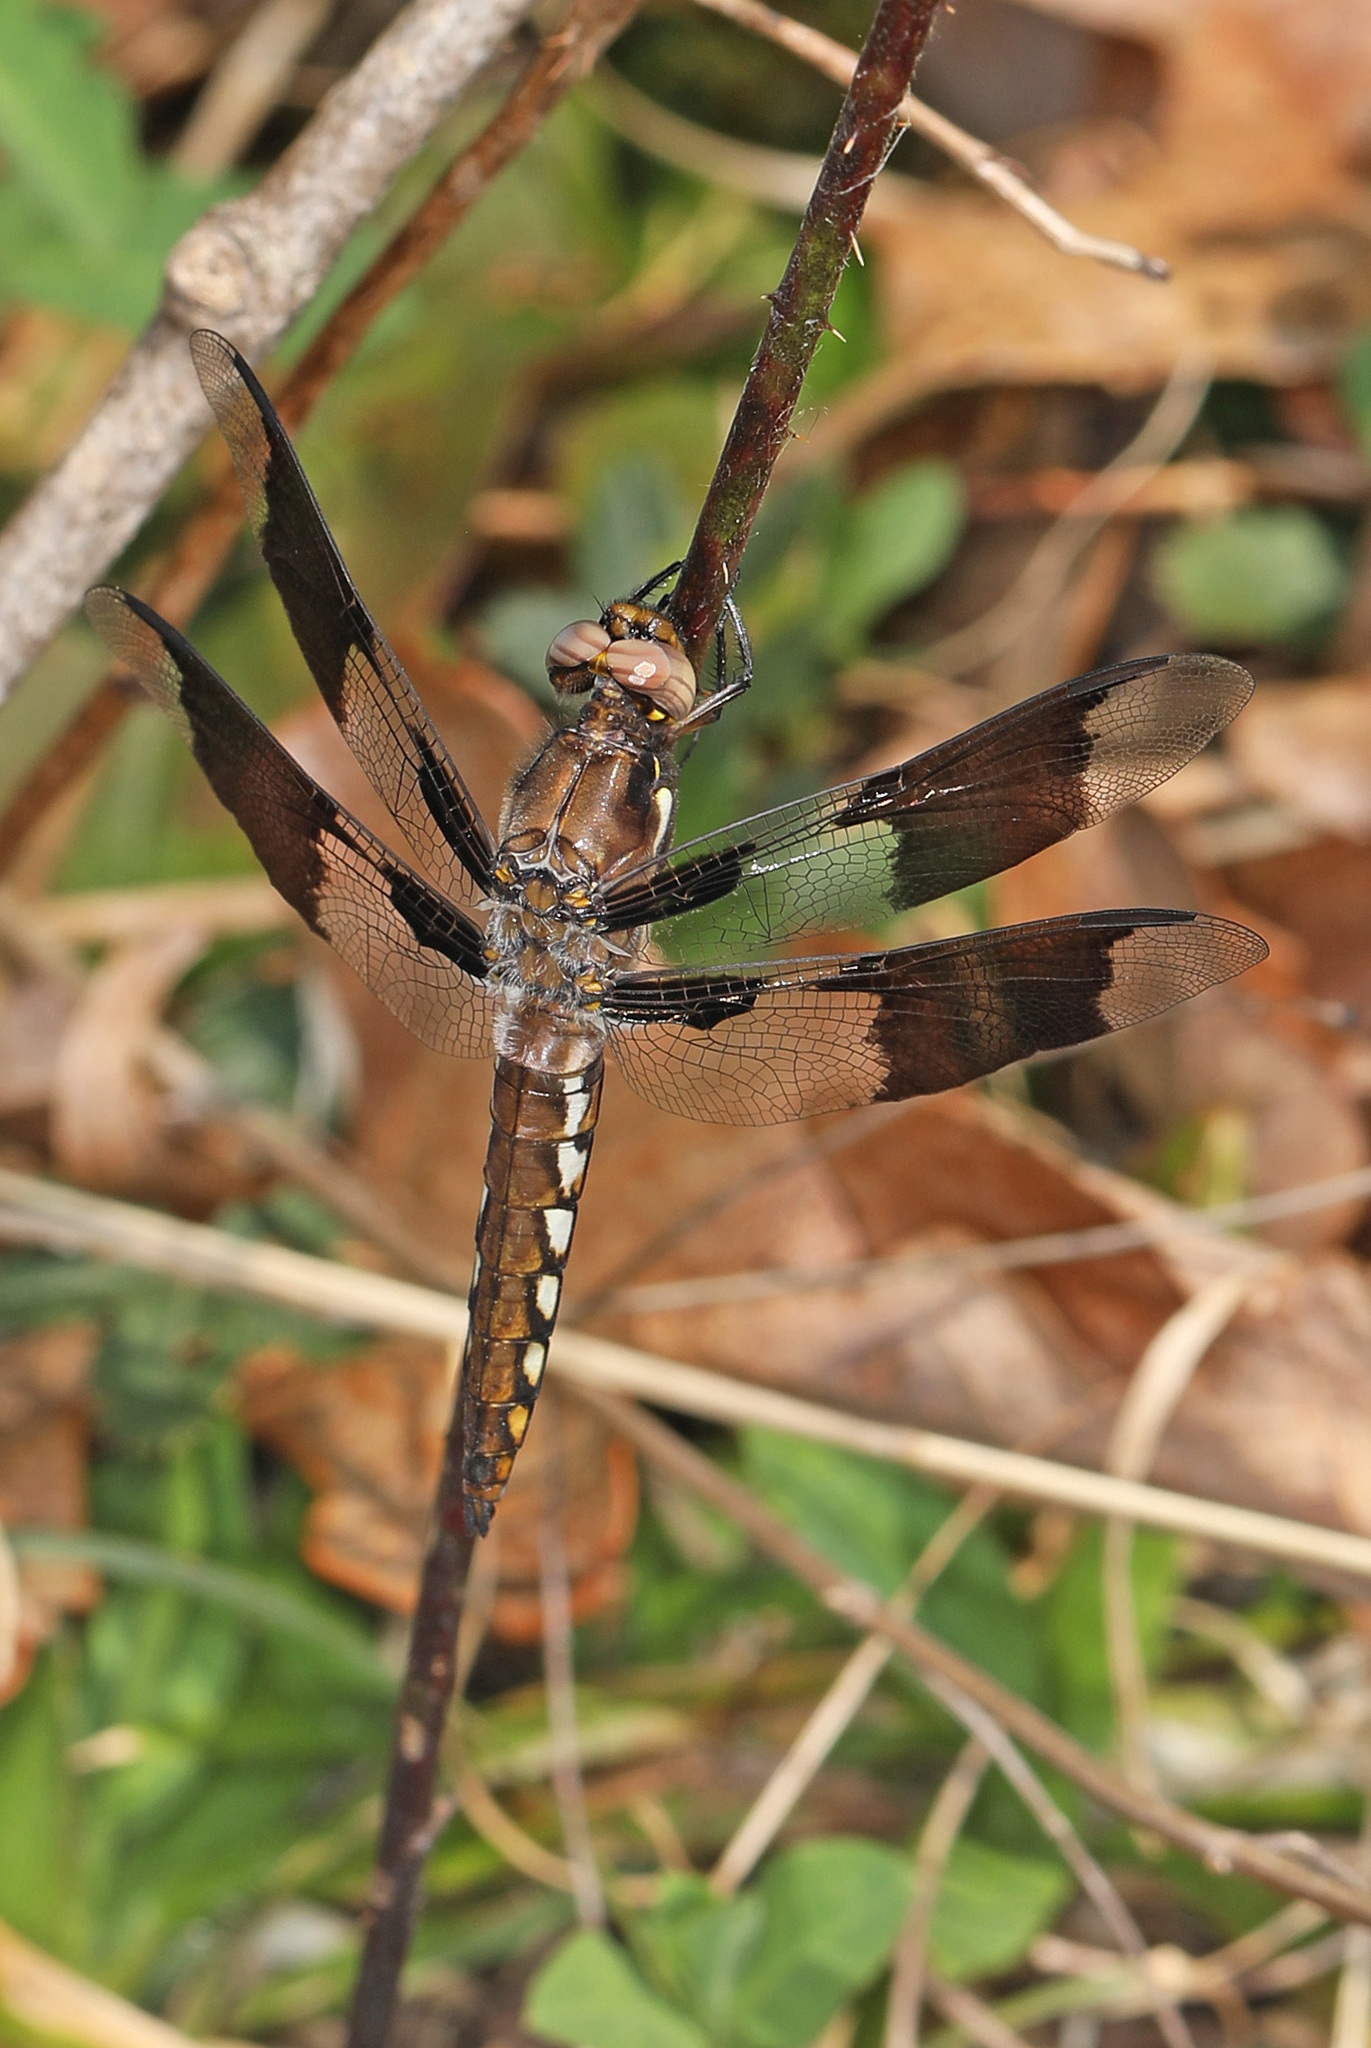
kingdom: Animalia
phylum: Arthropoda
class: Insecta
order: Odonata
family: Libellulidae
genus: Plathemis
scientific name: Plathemis lydia
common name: Common whitetail
